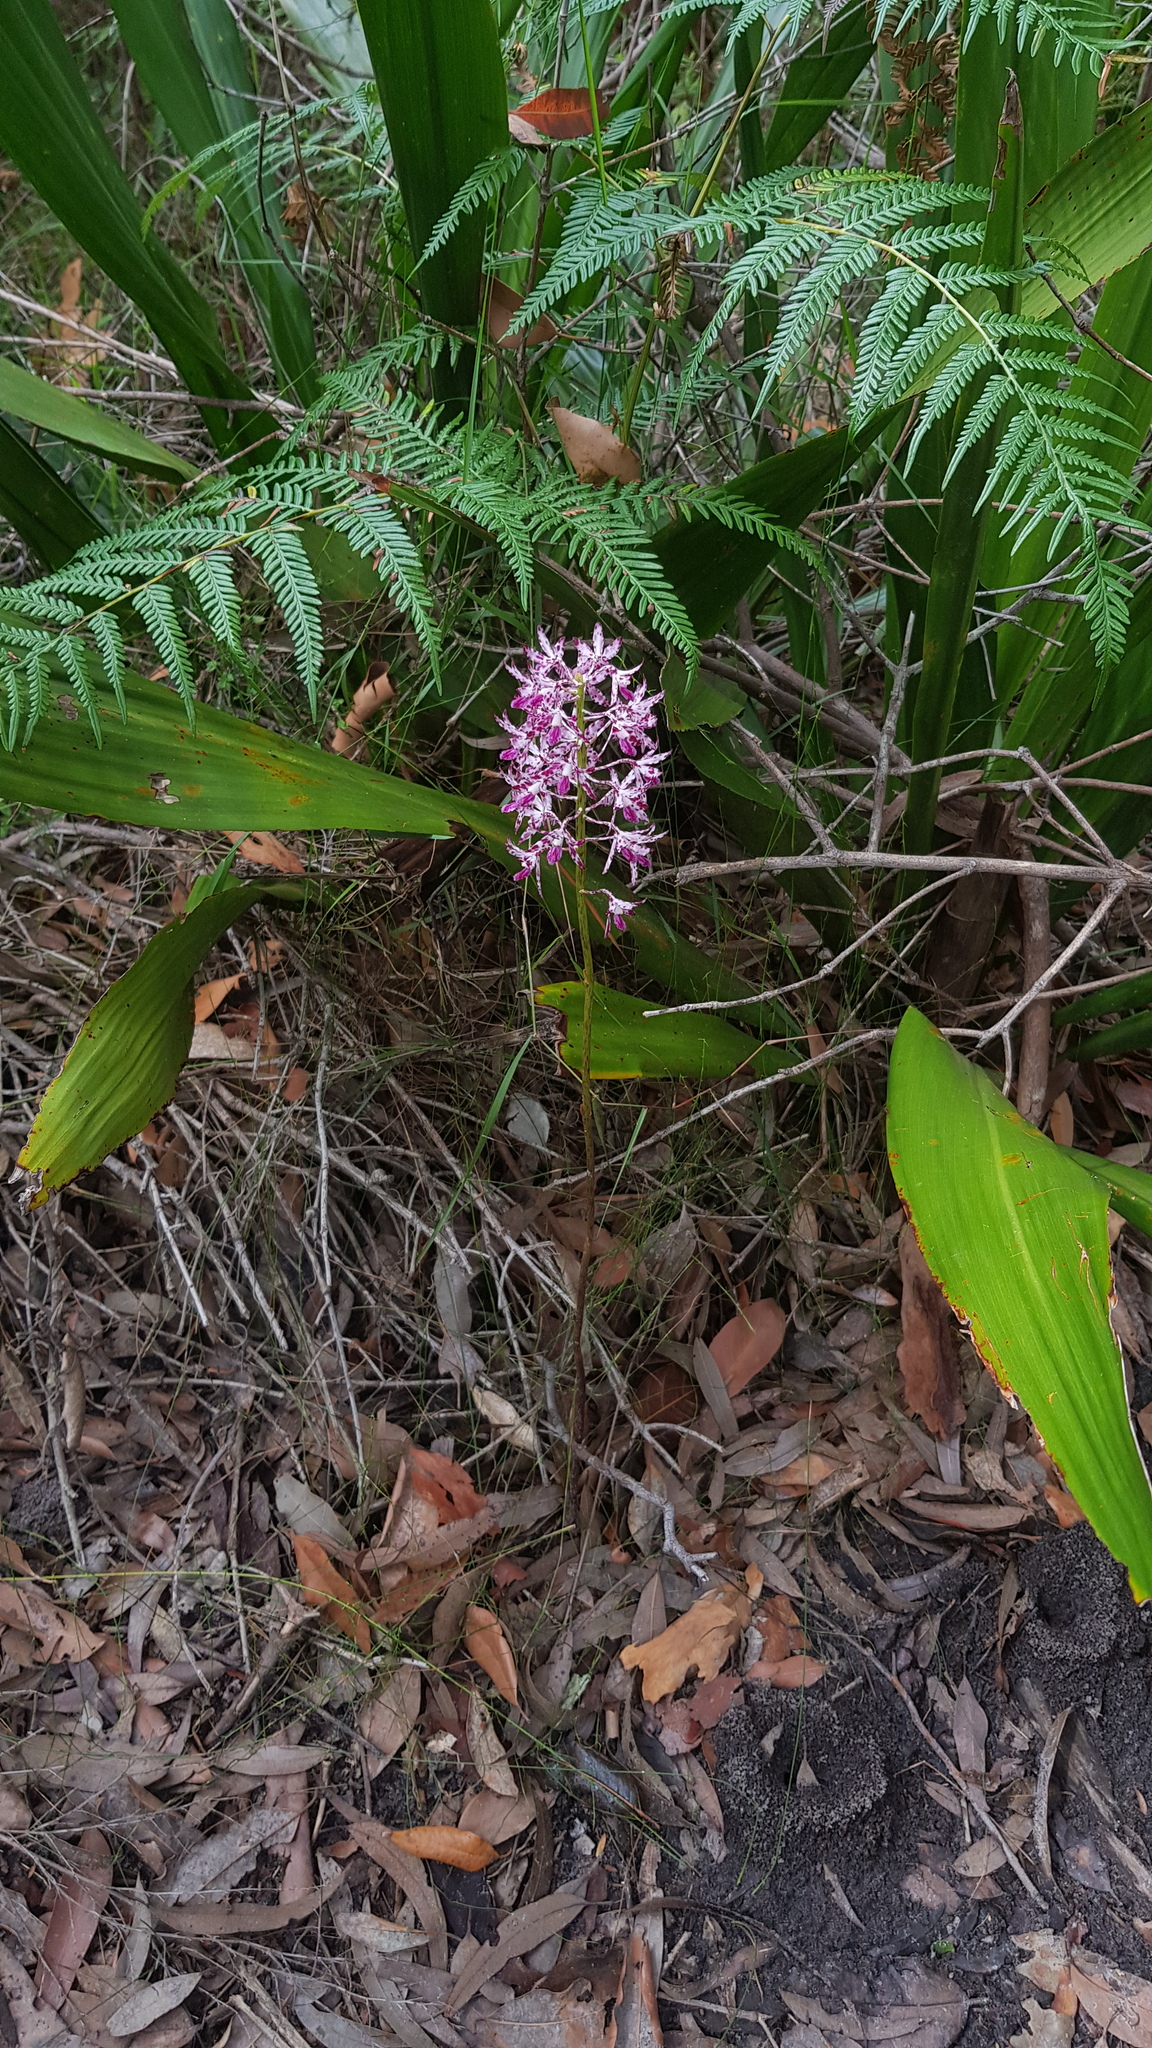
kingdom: Plantae
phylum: Tracheophyta
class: Liliopsida
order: Asparagales
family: Orchidaceae
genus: Dipodium
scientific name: Dipodium variegatum
